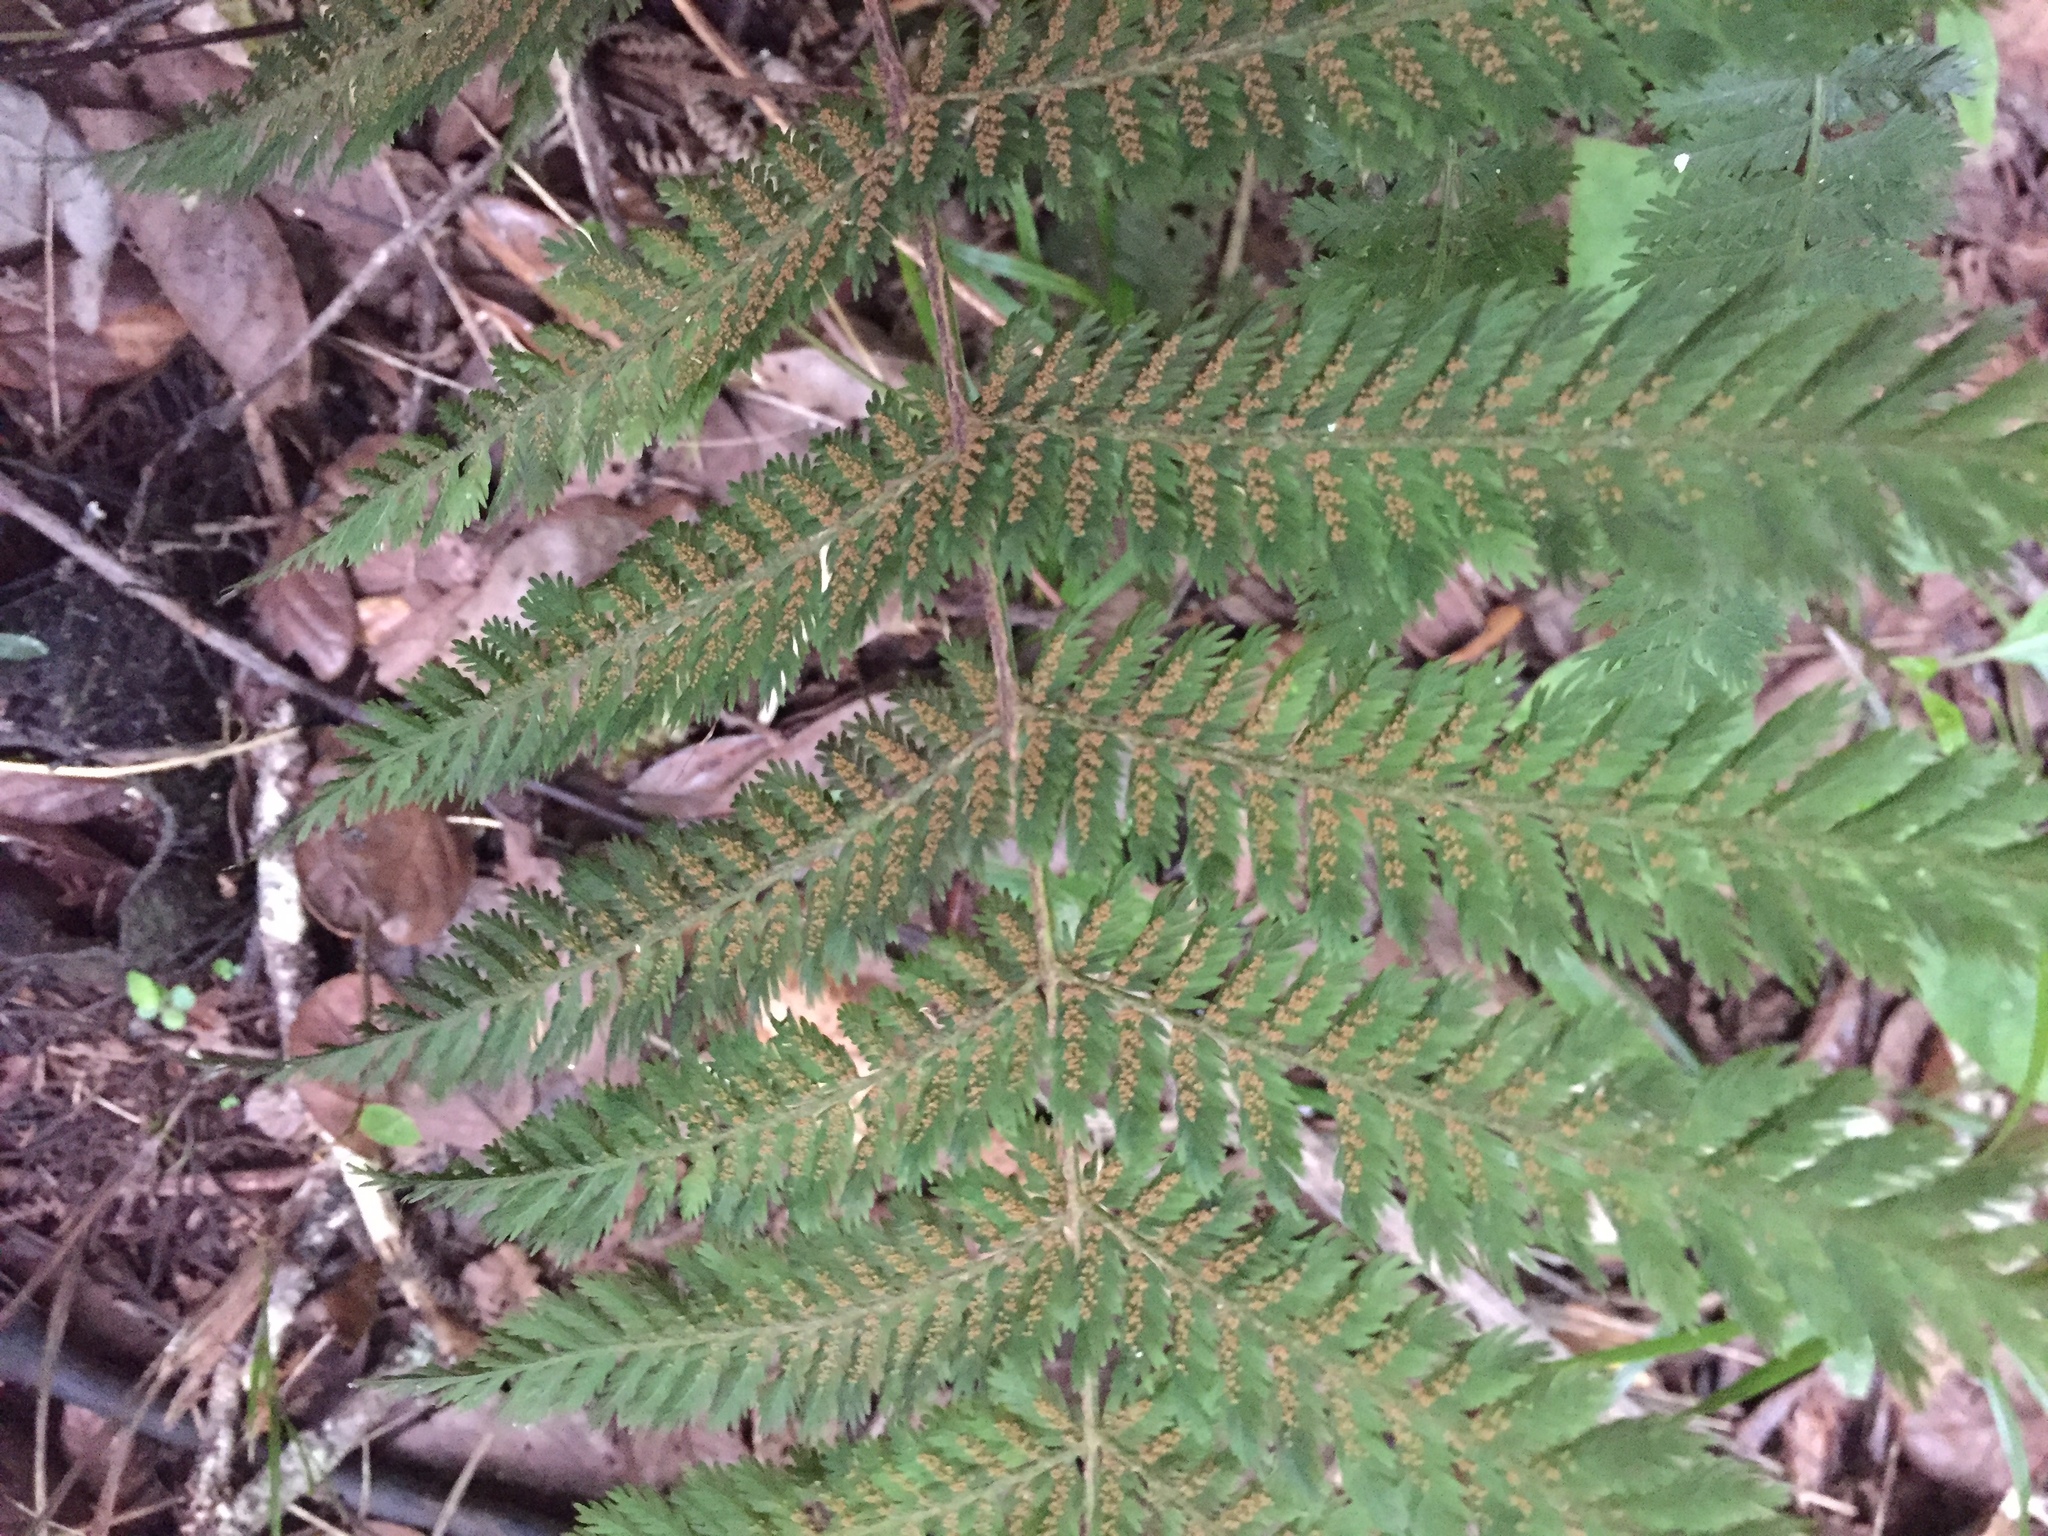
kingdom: Plantae
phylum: Tracheophyta
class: Polypodiopsida
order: Osmundales
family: Osmundaceae
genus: Leptopteris
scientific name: Leptopteris hymenophylloides
